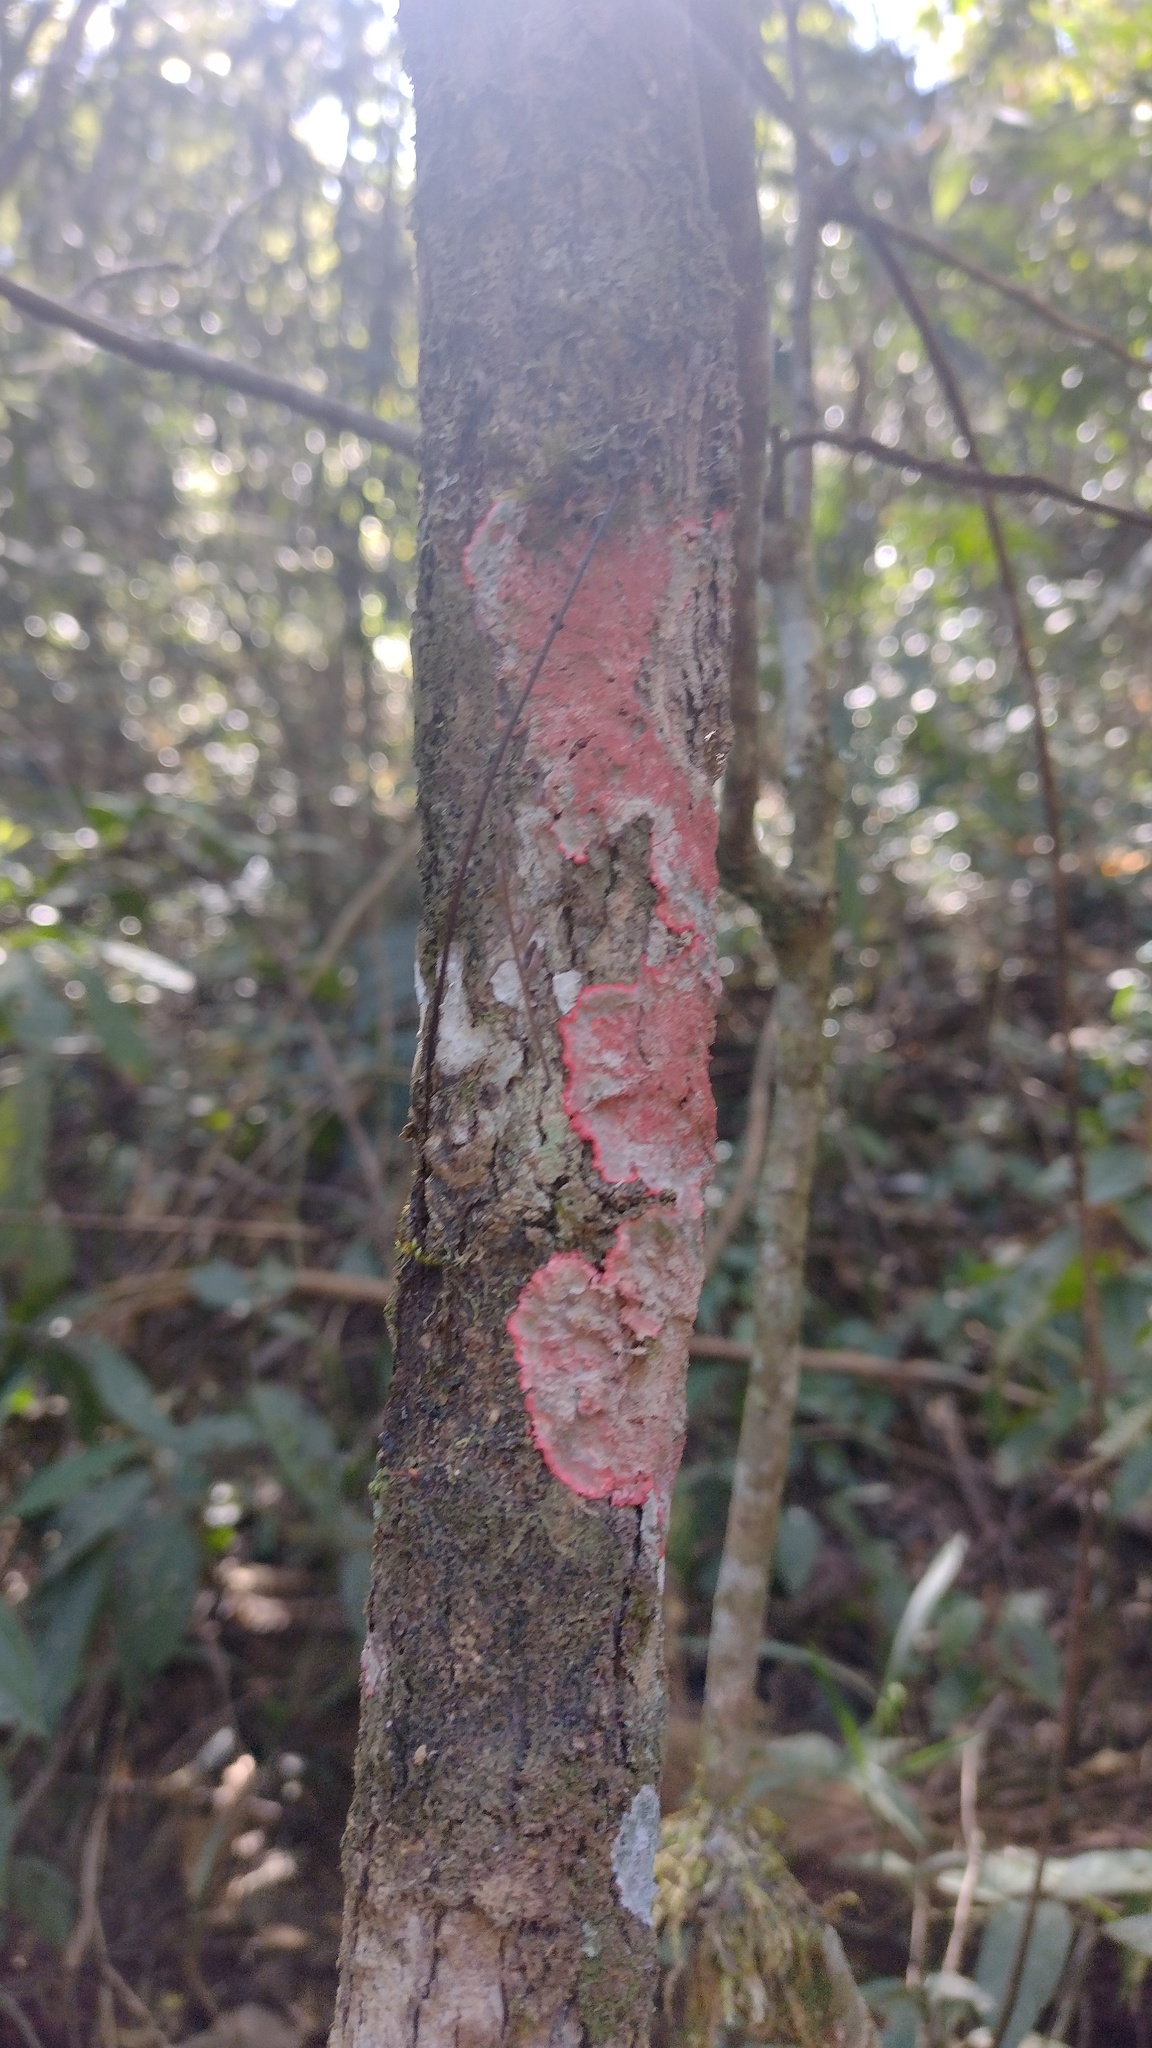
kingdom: Fungi
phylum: Ascomycota
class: Arthoniomycetes
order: Arthoniales
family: Arthoniaceae
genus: Herpothallon
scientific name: Herpothallon rubrocinctum
